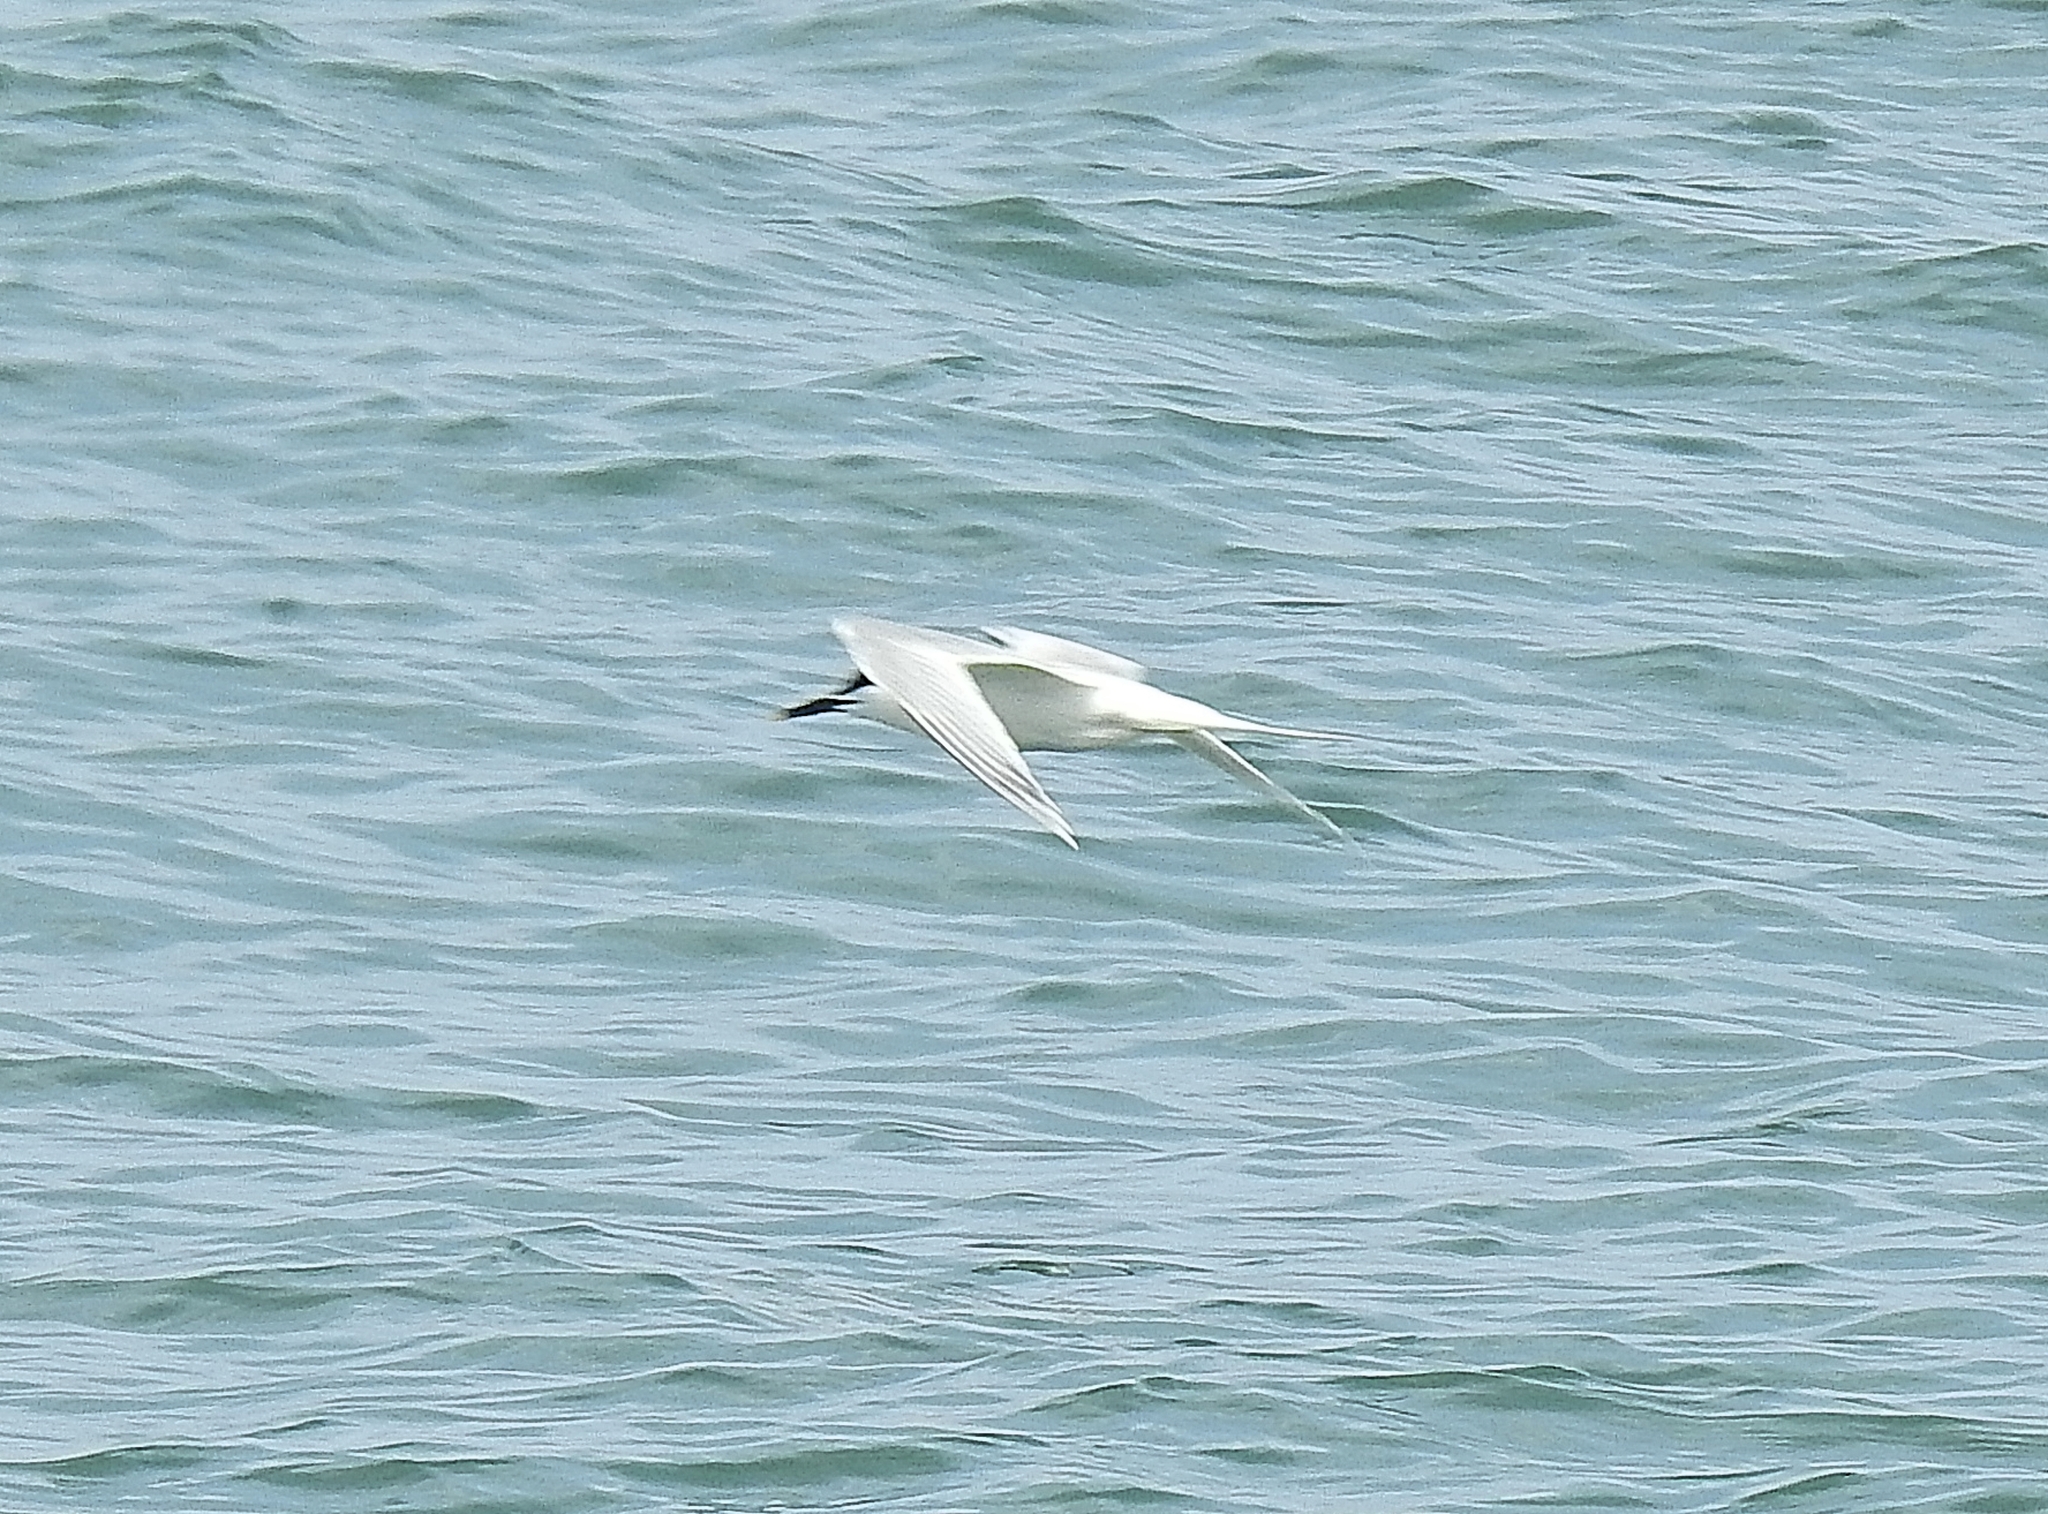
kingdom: Animalia
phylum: Chordata
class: Aves
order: Charadriiformes
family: Laridae
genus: Thalasseus
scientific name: Thalasseus sandvicensis
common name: Sandwich tern
